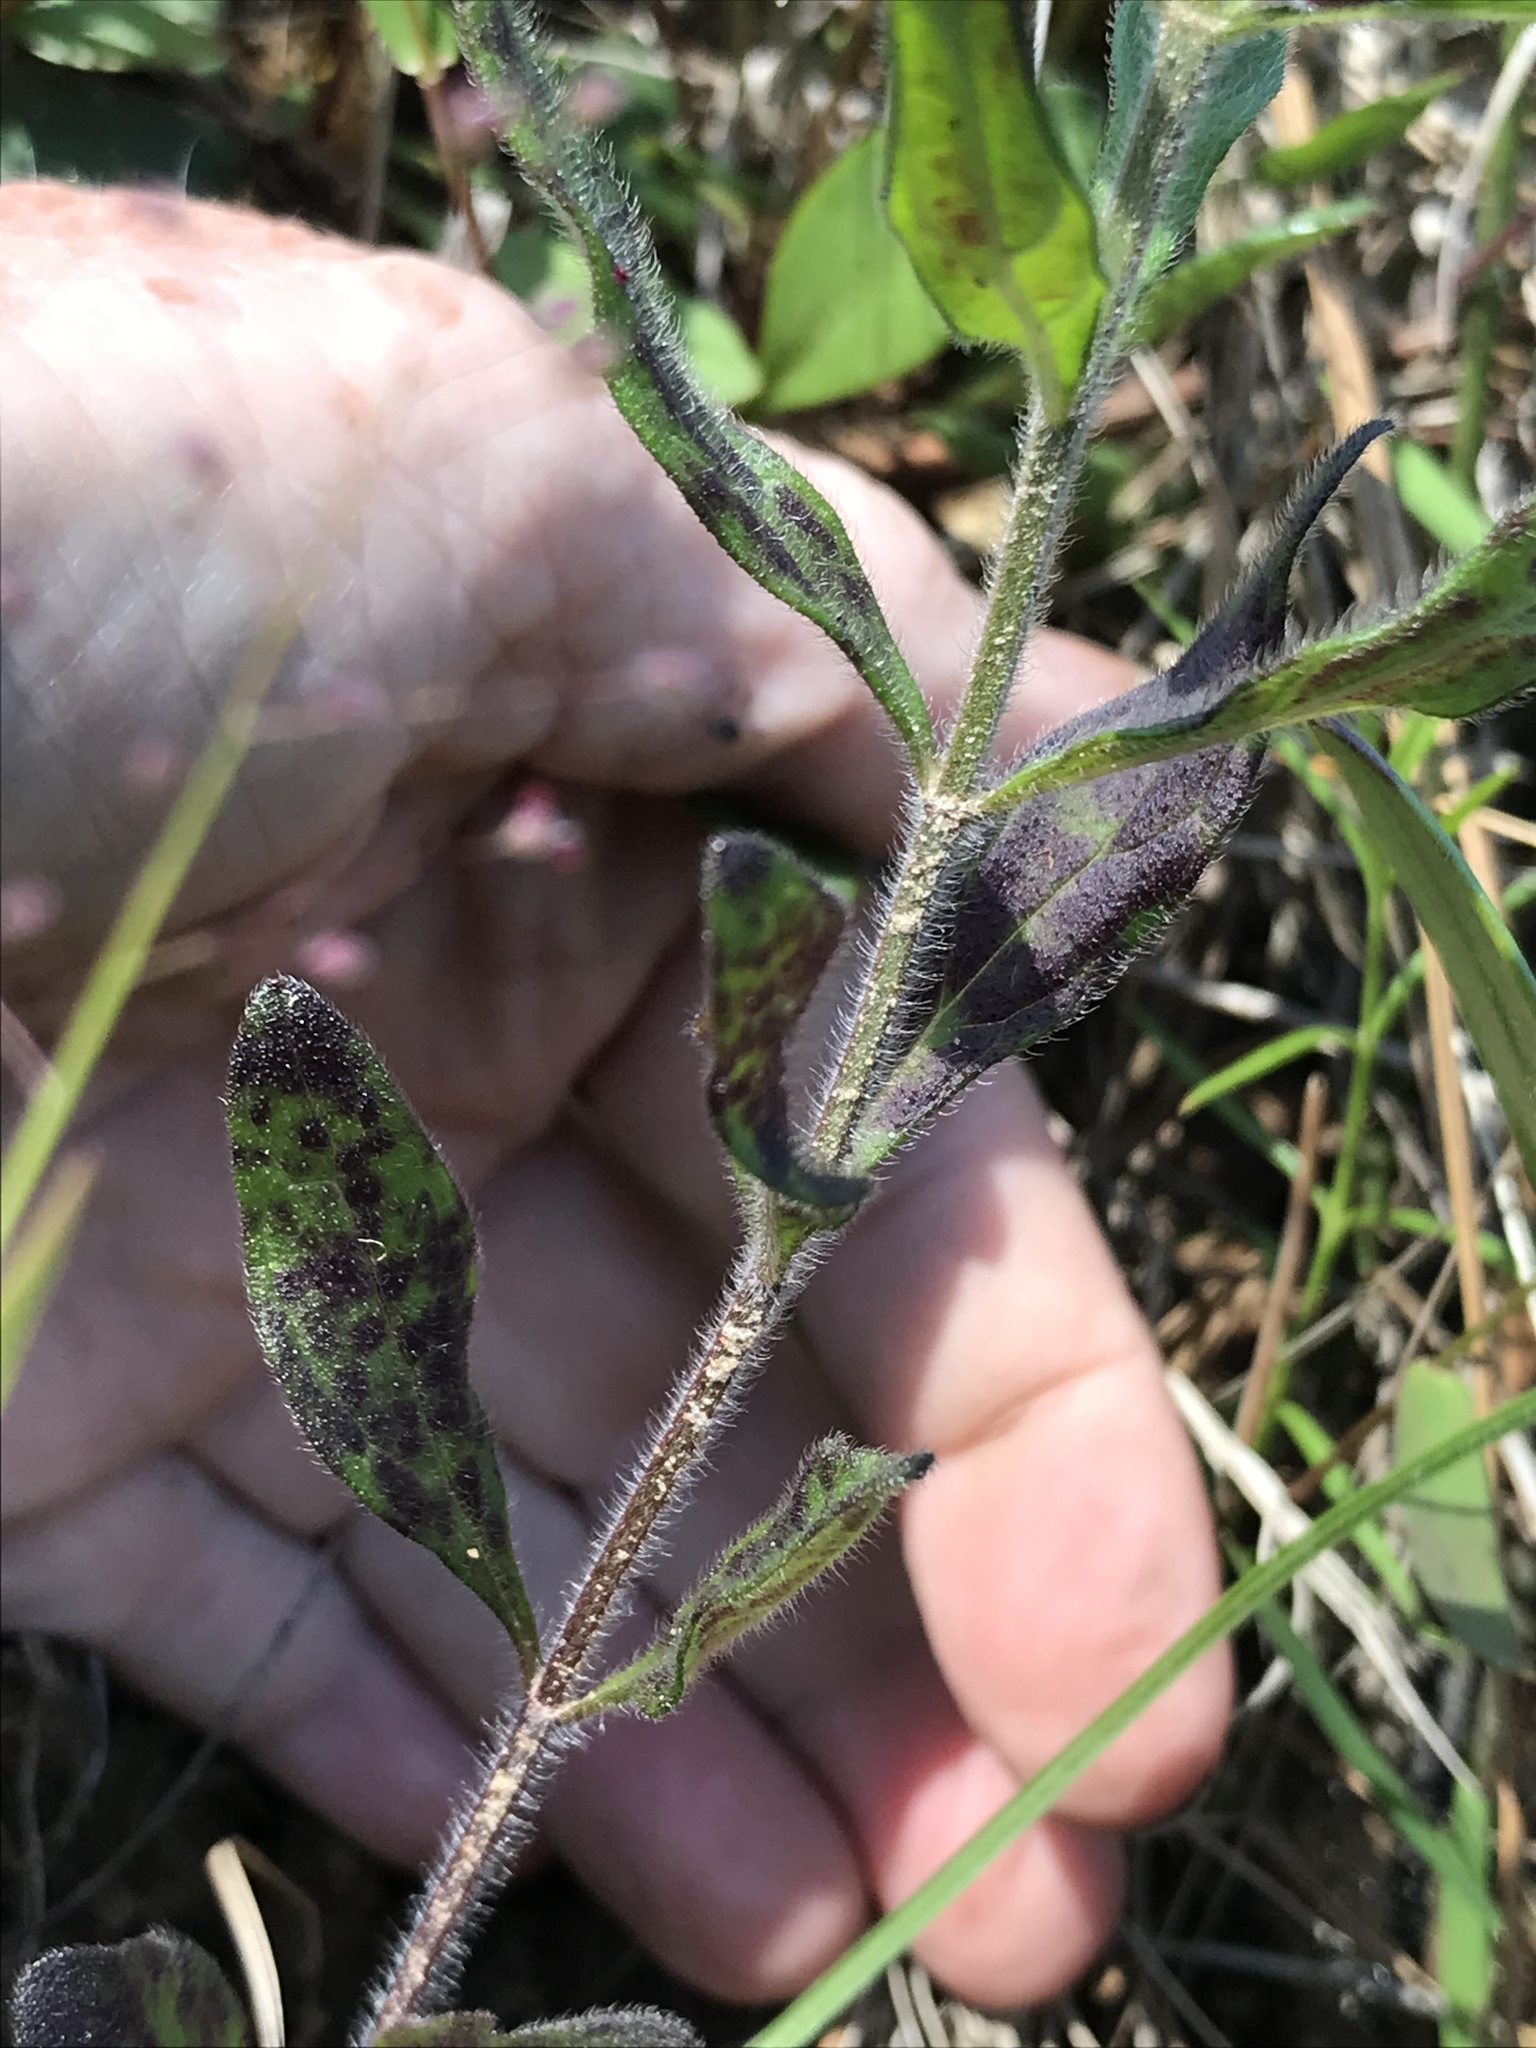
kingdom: Plantae
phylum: Tracheophyta
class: Magnoliopsida
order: Lamiales
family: Lamiaceae
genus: Scutellaria
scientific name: Scutellaria integrifolia
